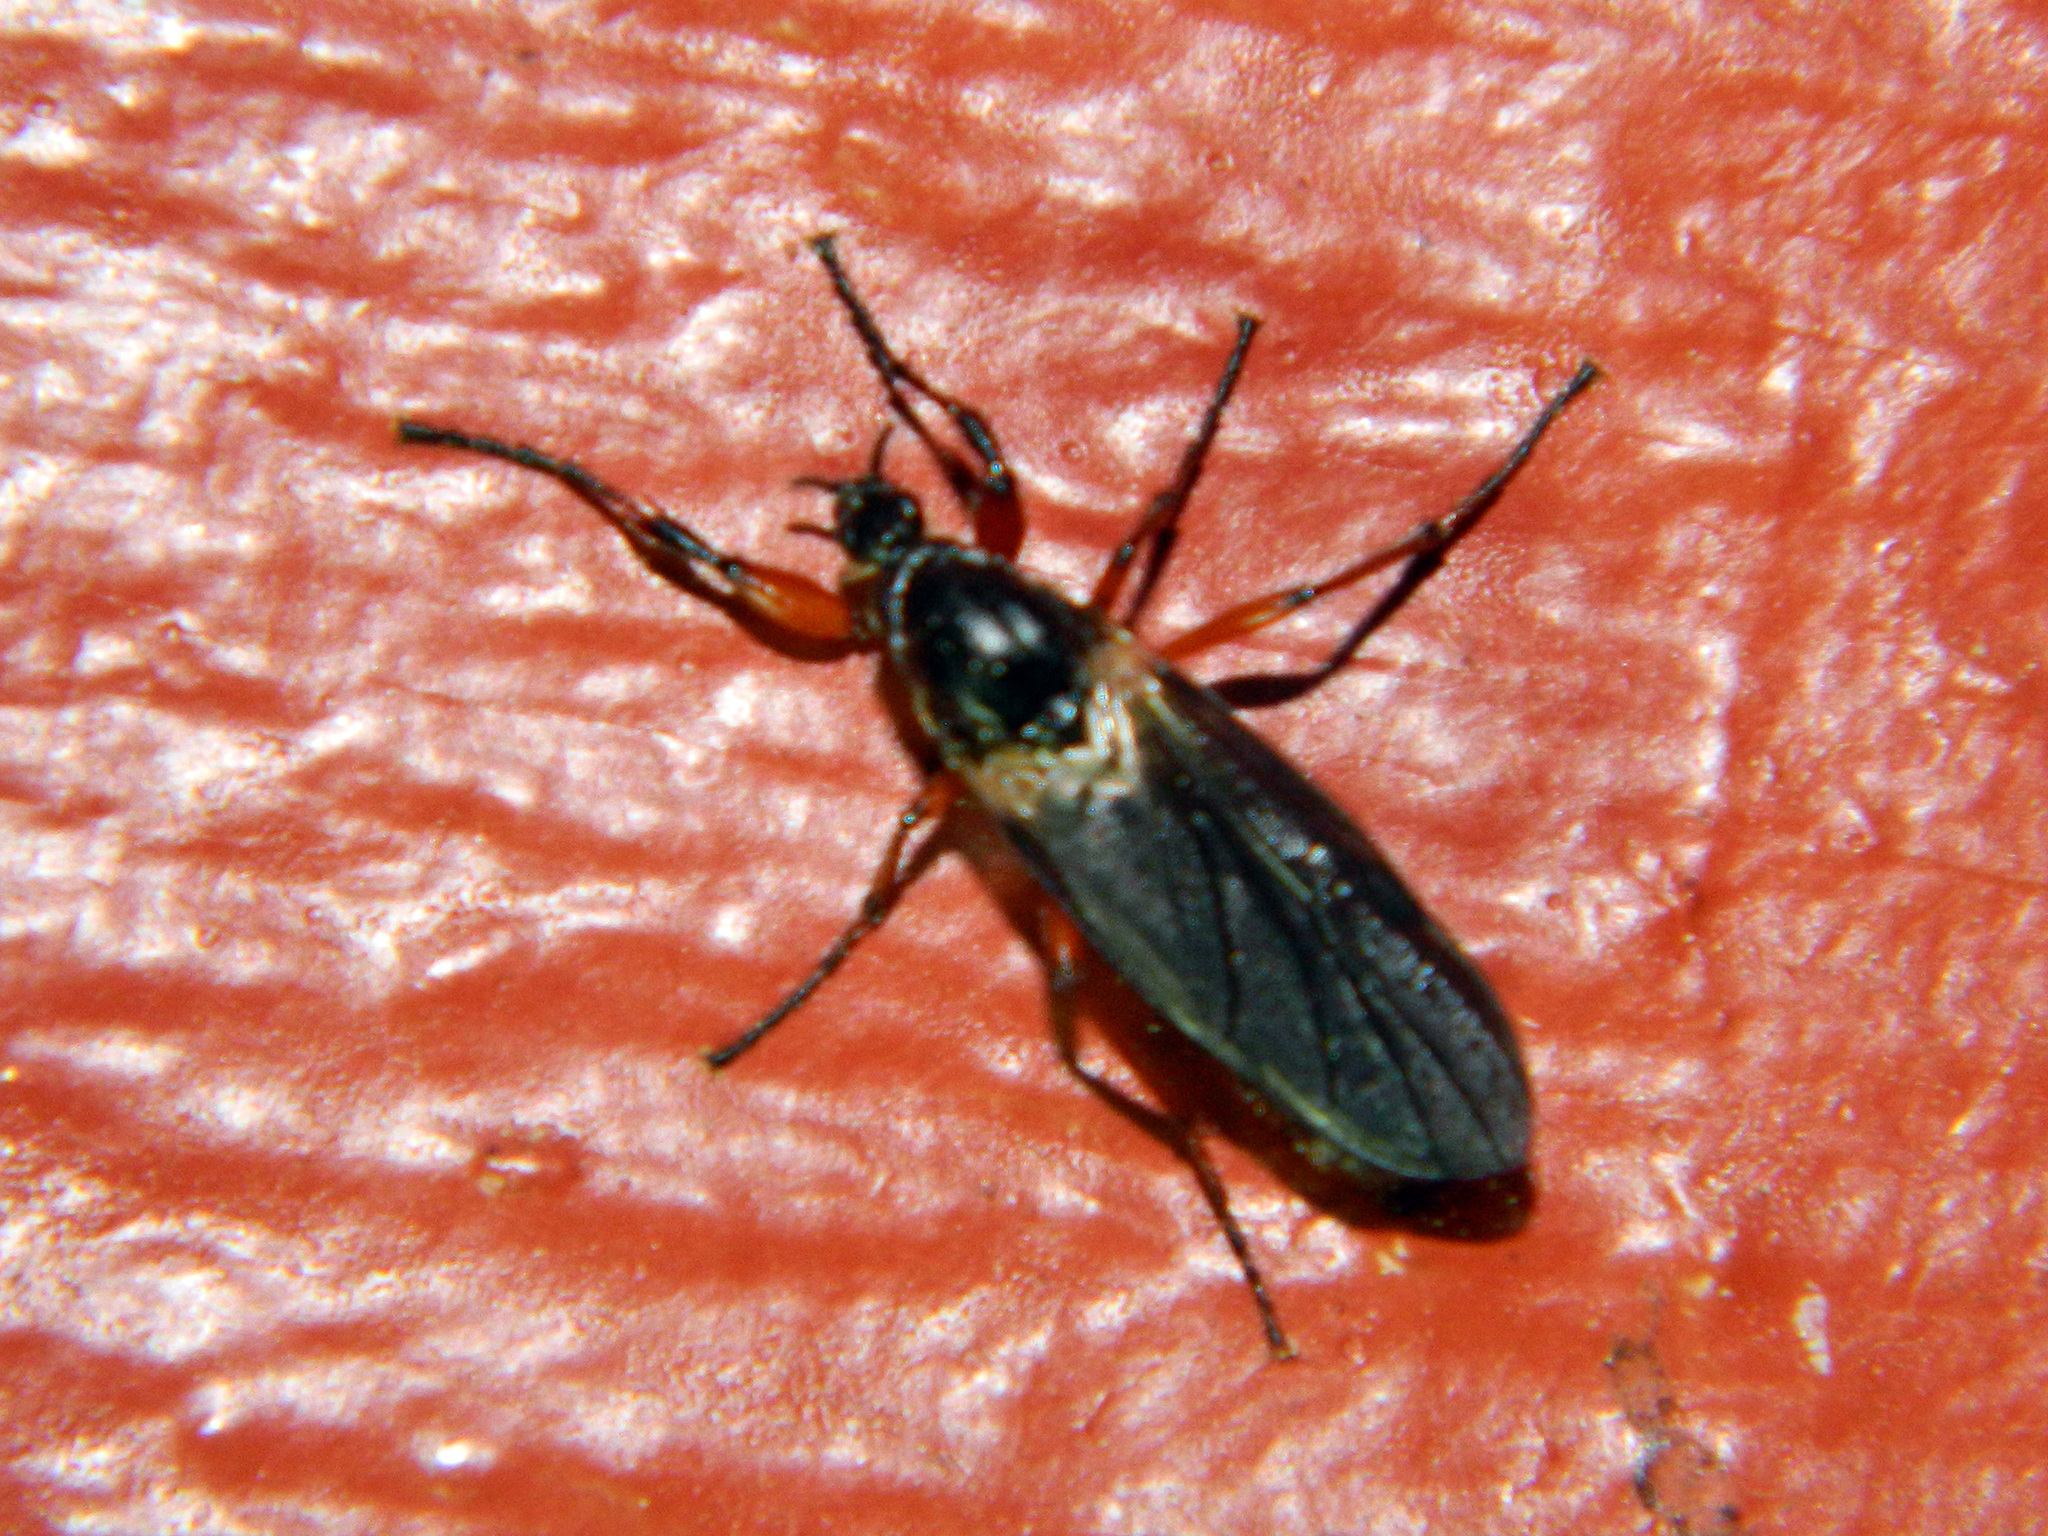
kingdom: Animalia
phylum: Arthropoda
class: Insecta
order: Diptera
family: Bibionidae
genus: Bibio
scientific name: Bibio vestitus
